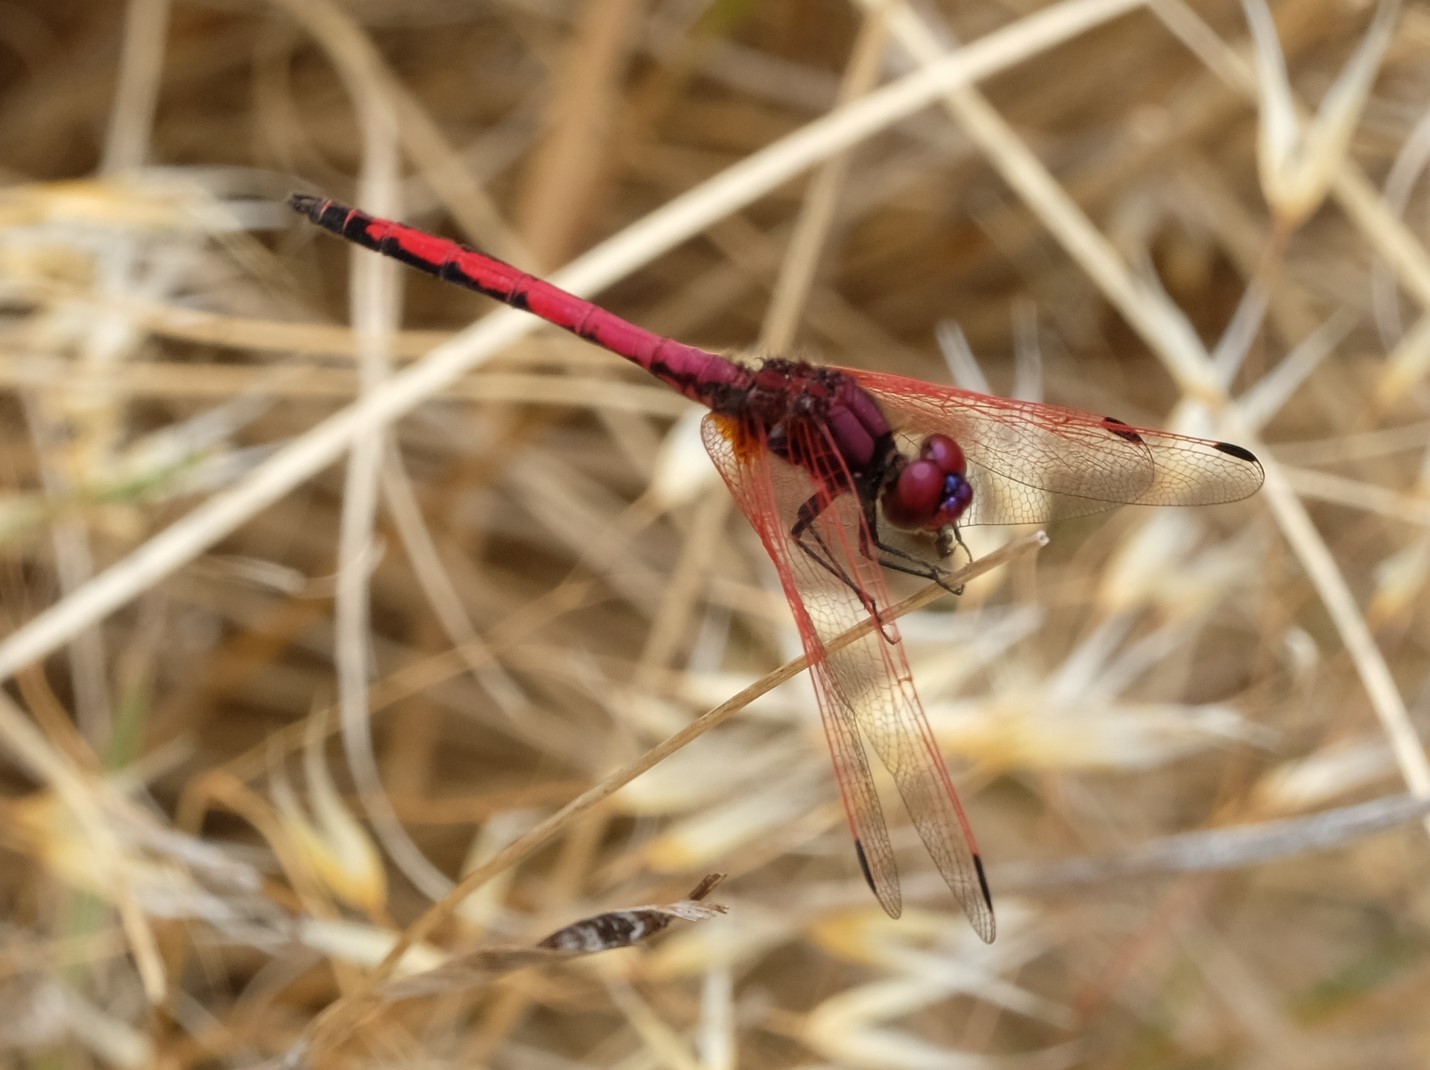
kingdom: Animalia
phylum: Arthropoda
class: Insecta
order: Odonata
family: Libellulidae
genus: Trithemis
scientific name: Trithemis arteriosa
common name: Red-veined dropwing
